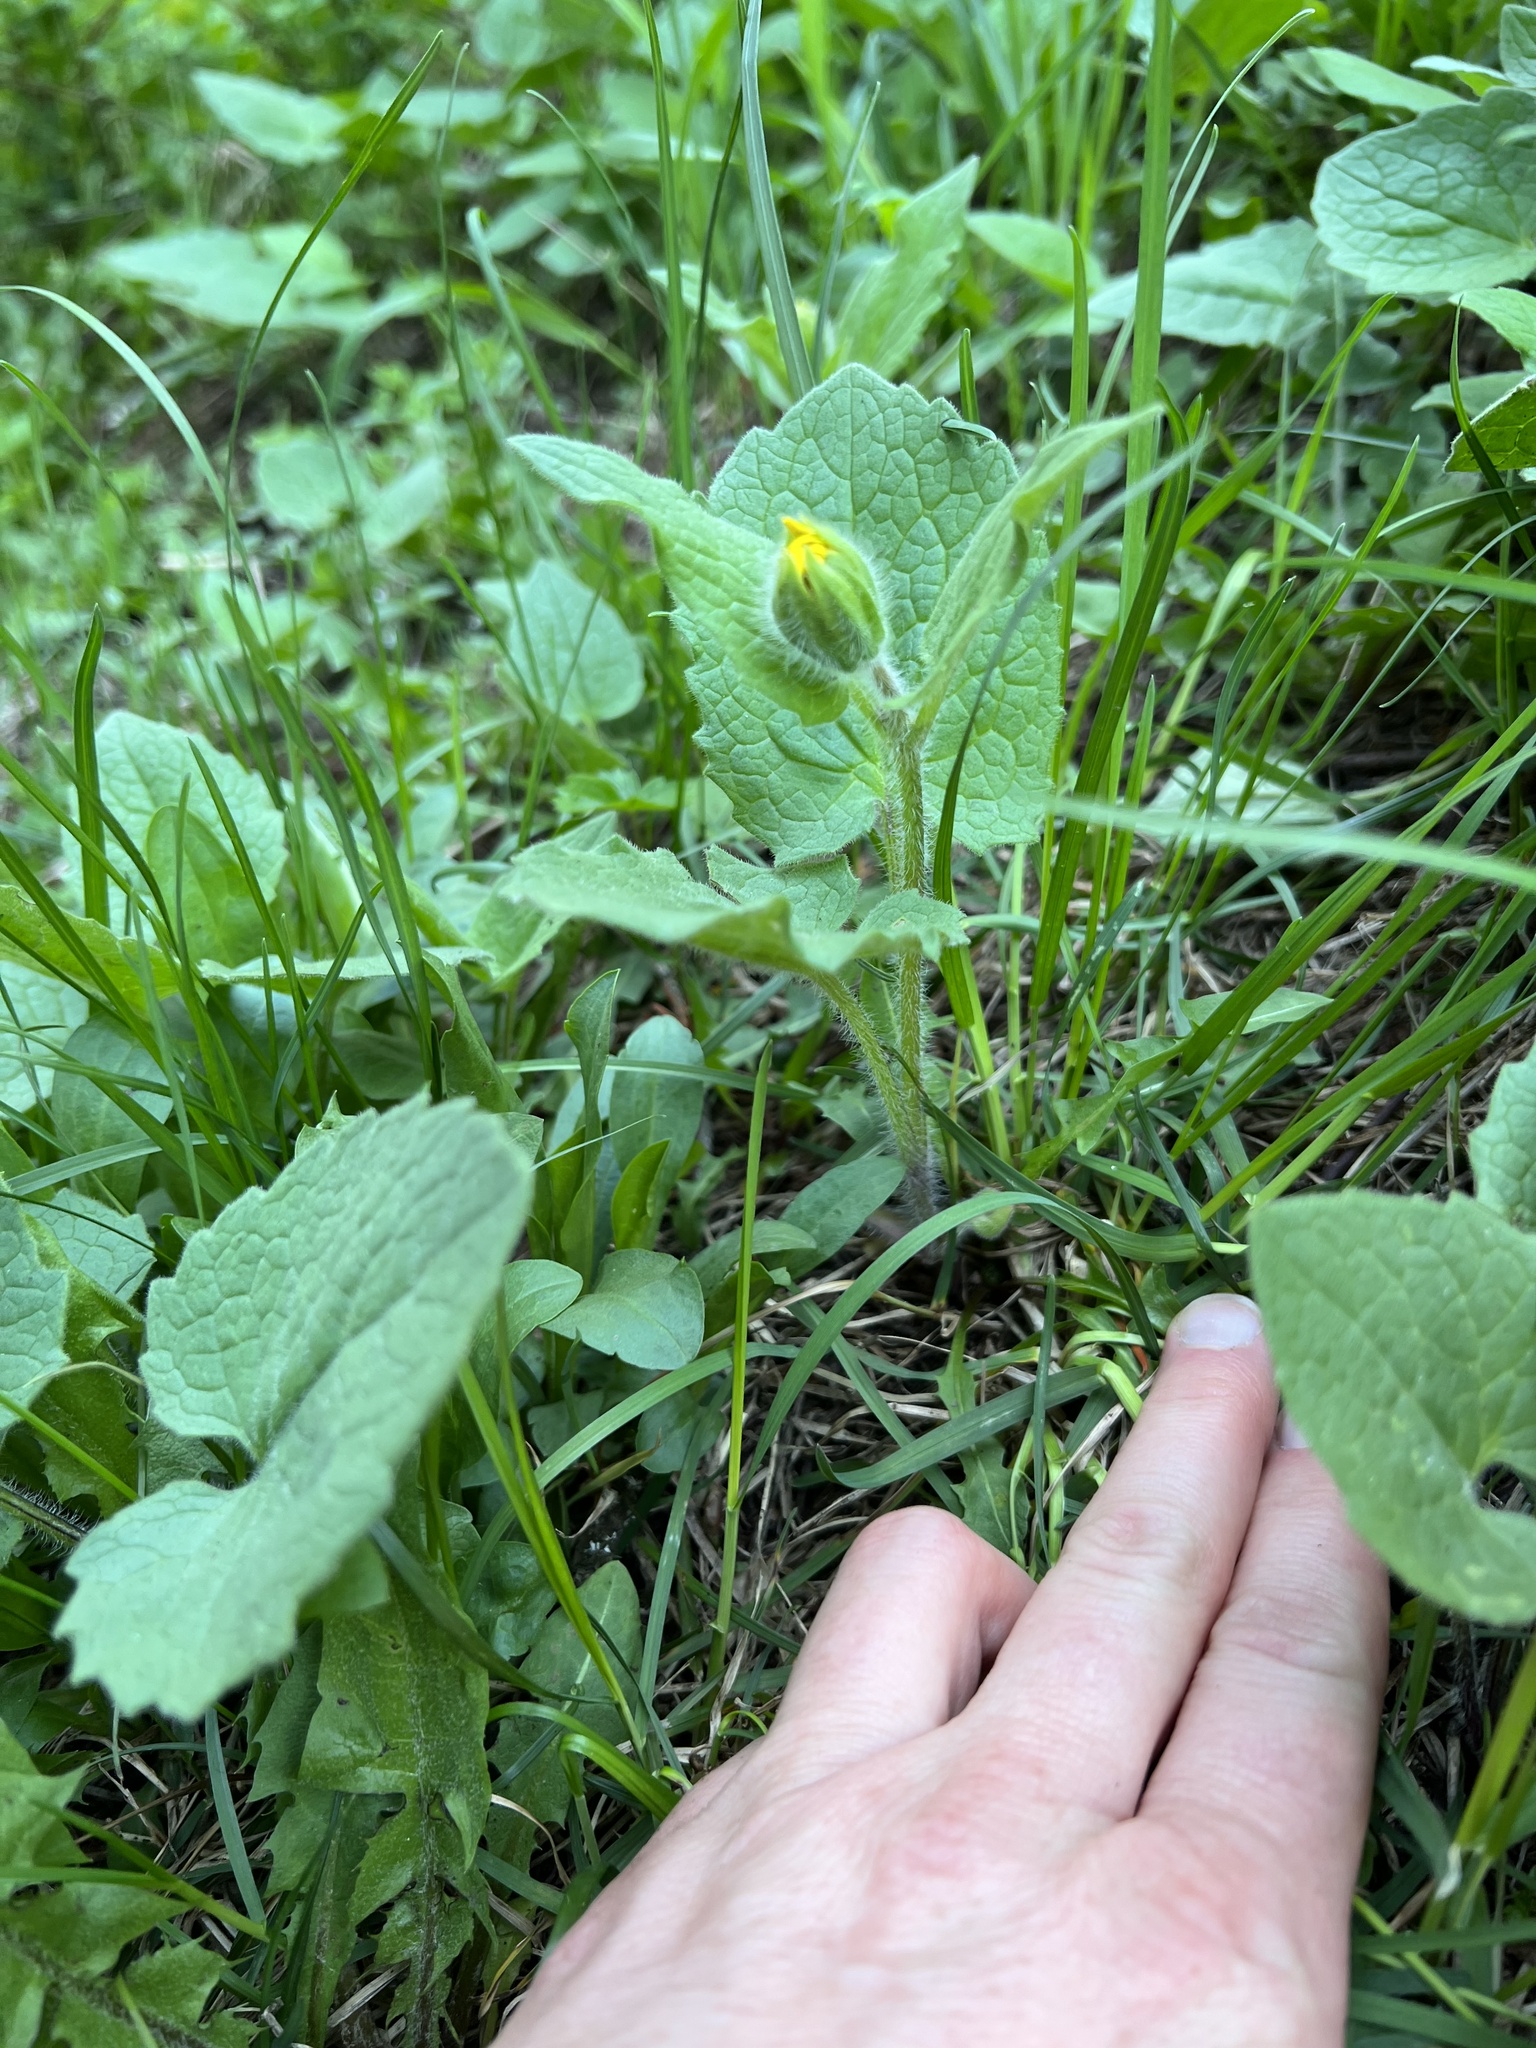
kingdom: Plantae
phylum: Tracheophyta
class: Magnoliopsida
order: Asterales
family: Asteraceae
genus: Arnica
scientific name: Arnica cordifolia
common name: Heart-leaf arnica
